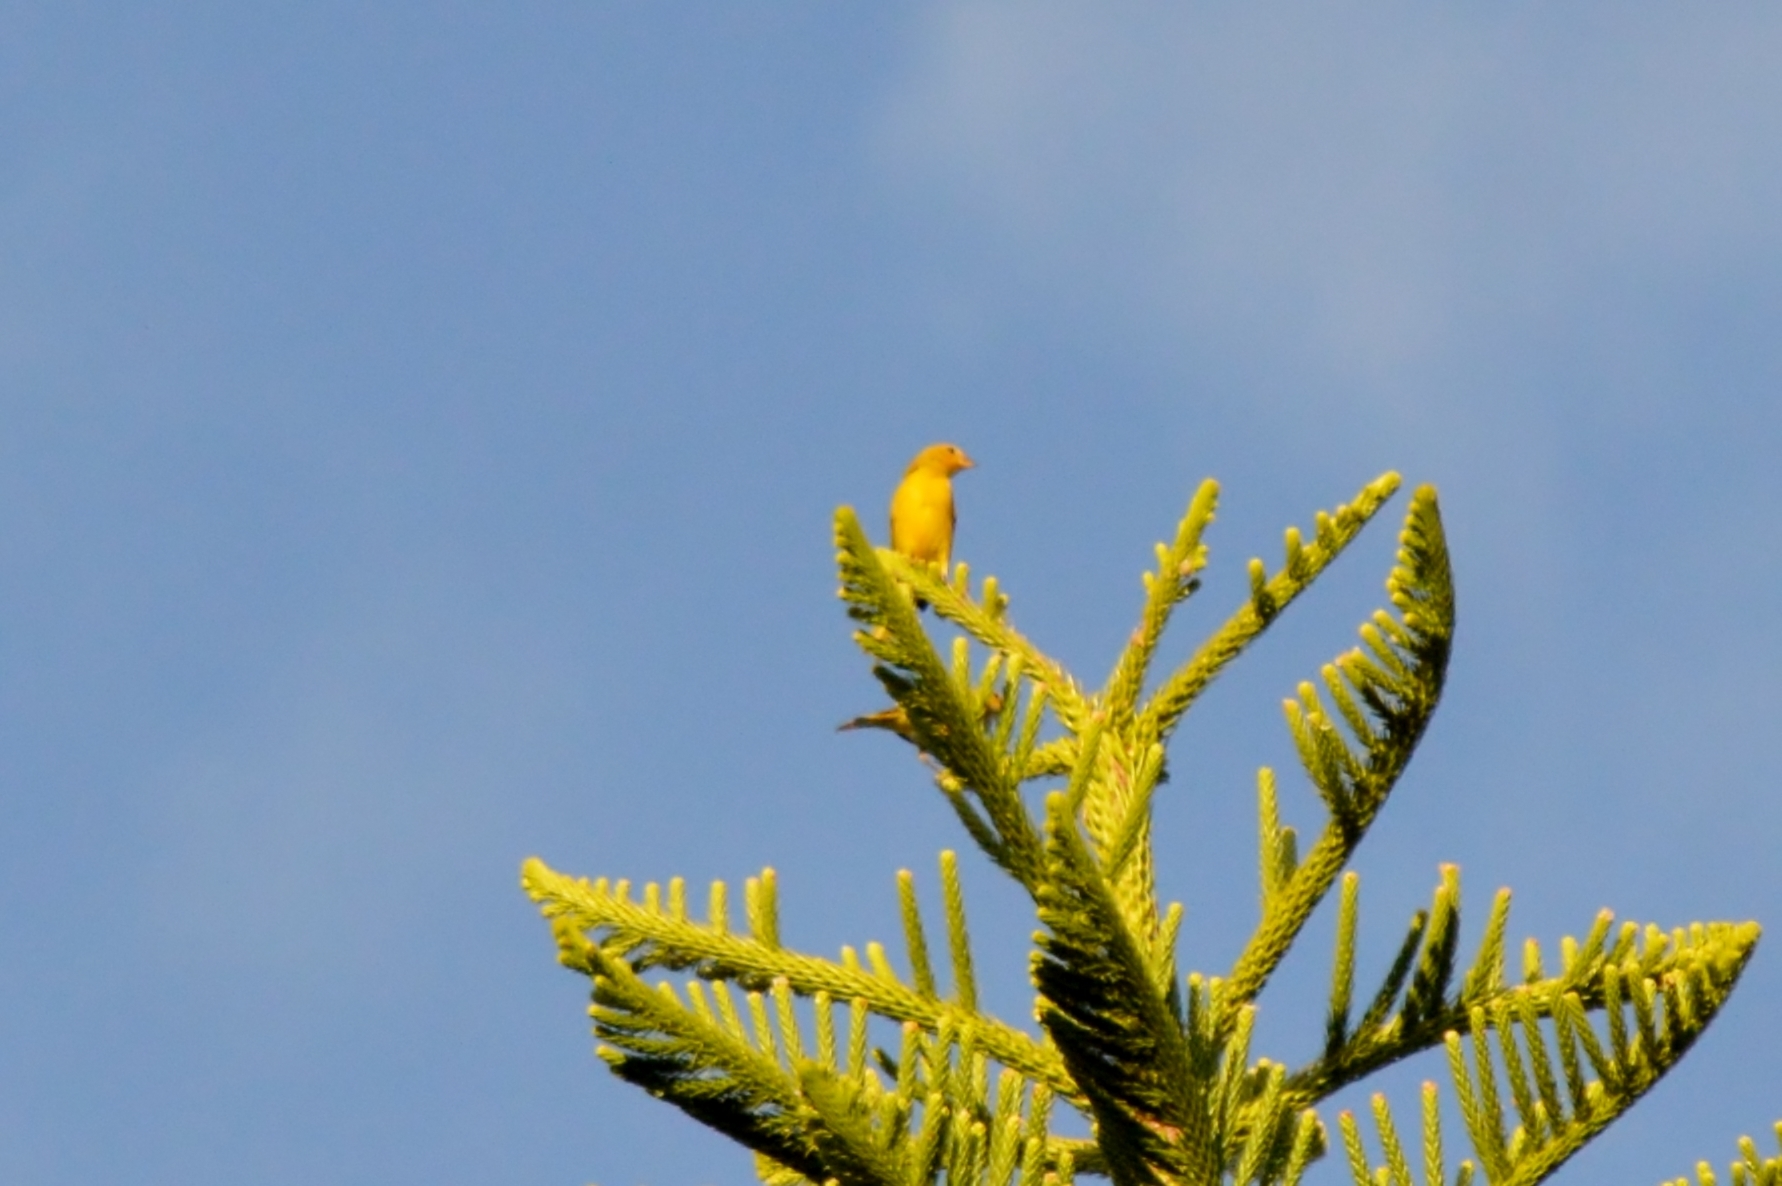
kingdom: Animalia
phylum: Chordata
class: Aves
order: Passeriformes
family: Thraupidae
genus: Sicalis
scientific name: Sicalis flaveola
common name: Saffron finch
